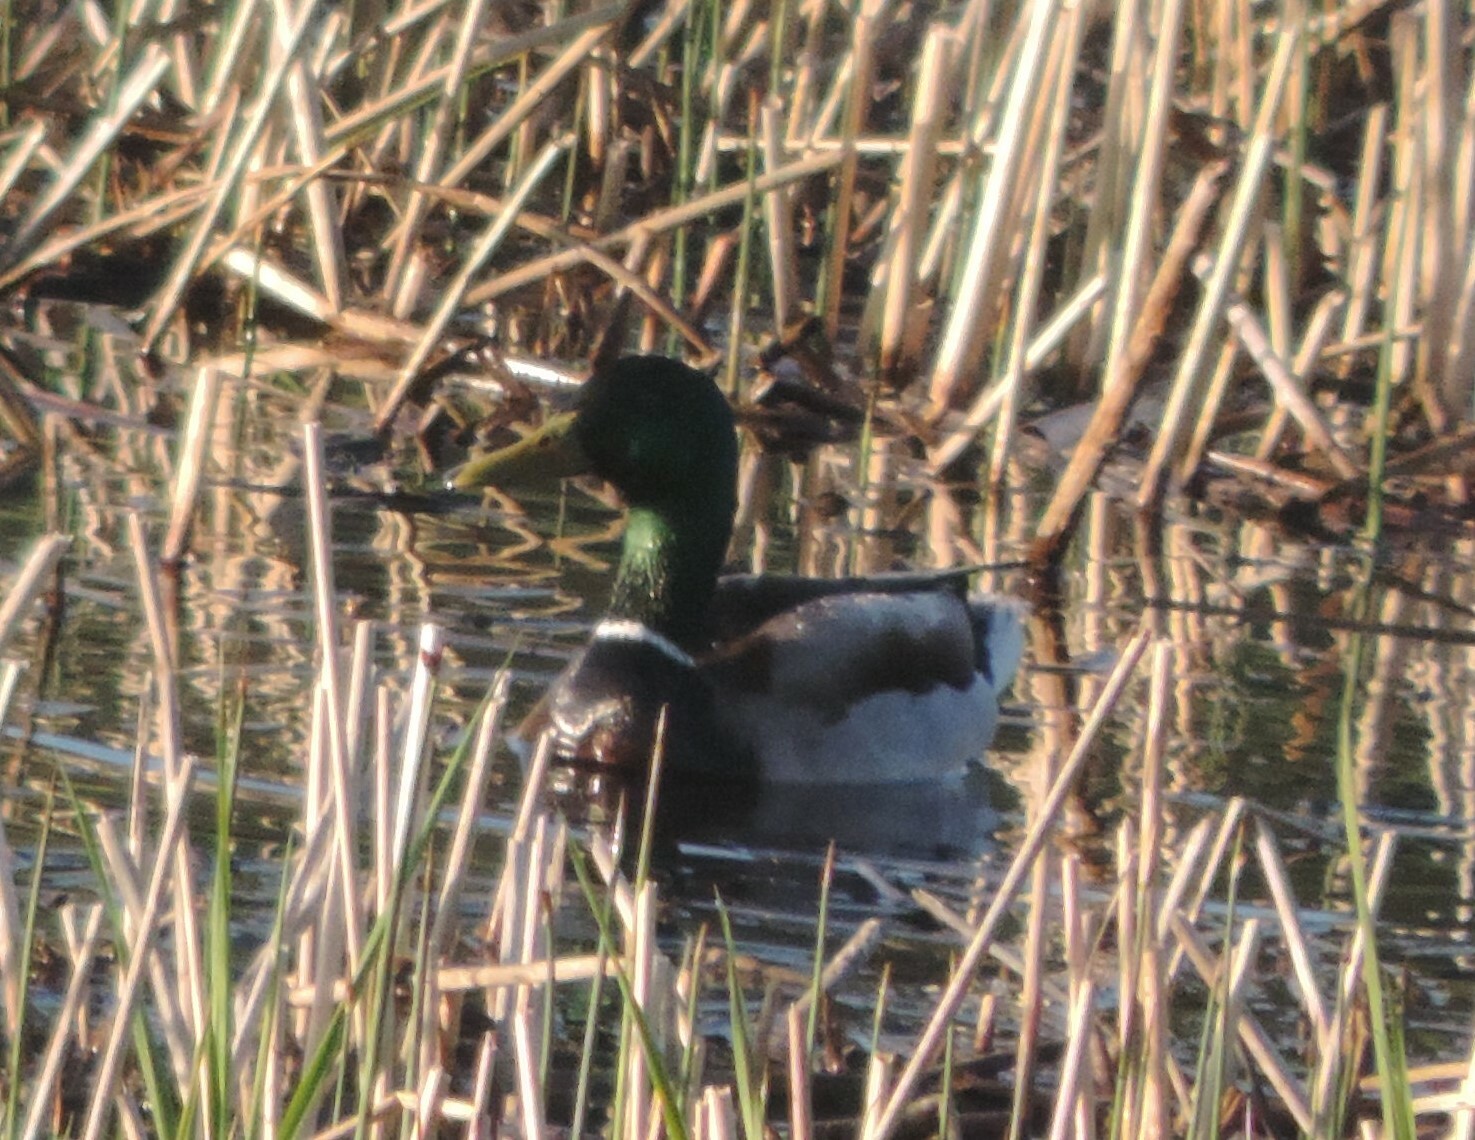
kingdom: Animalia
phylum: Chordata
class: Aves
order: Anseriformes
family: Anatidae
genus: Anas
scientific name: Anas platyrhynchos
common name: Mallard
